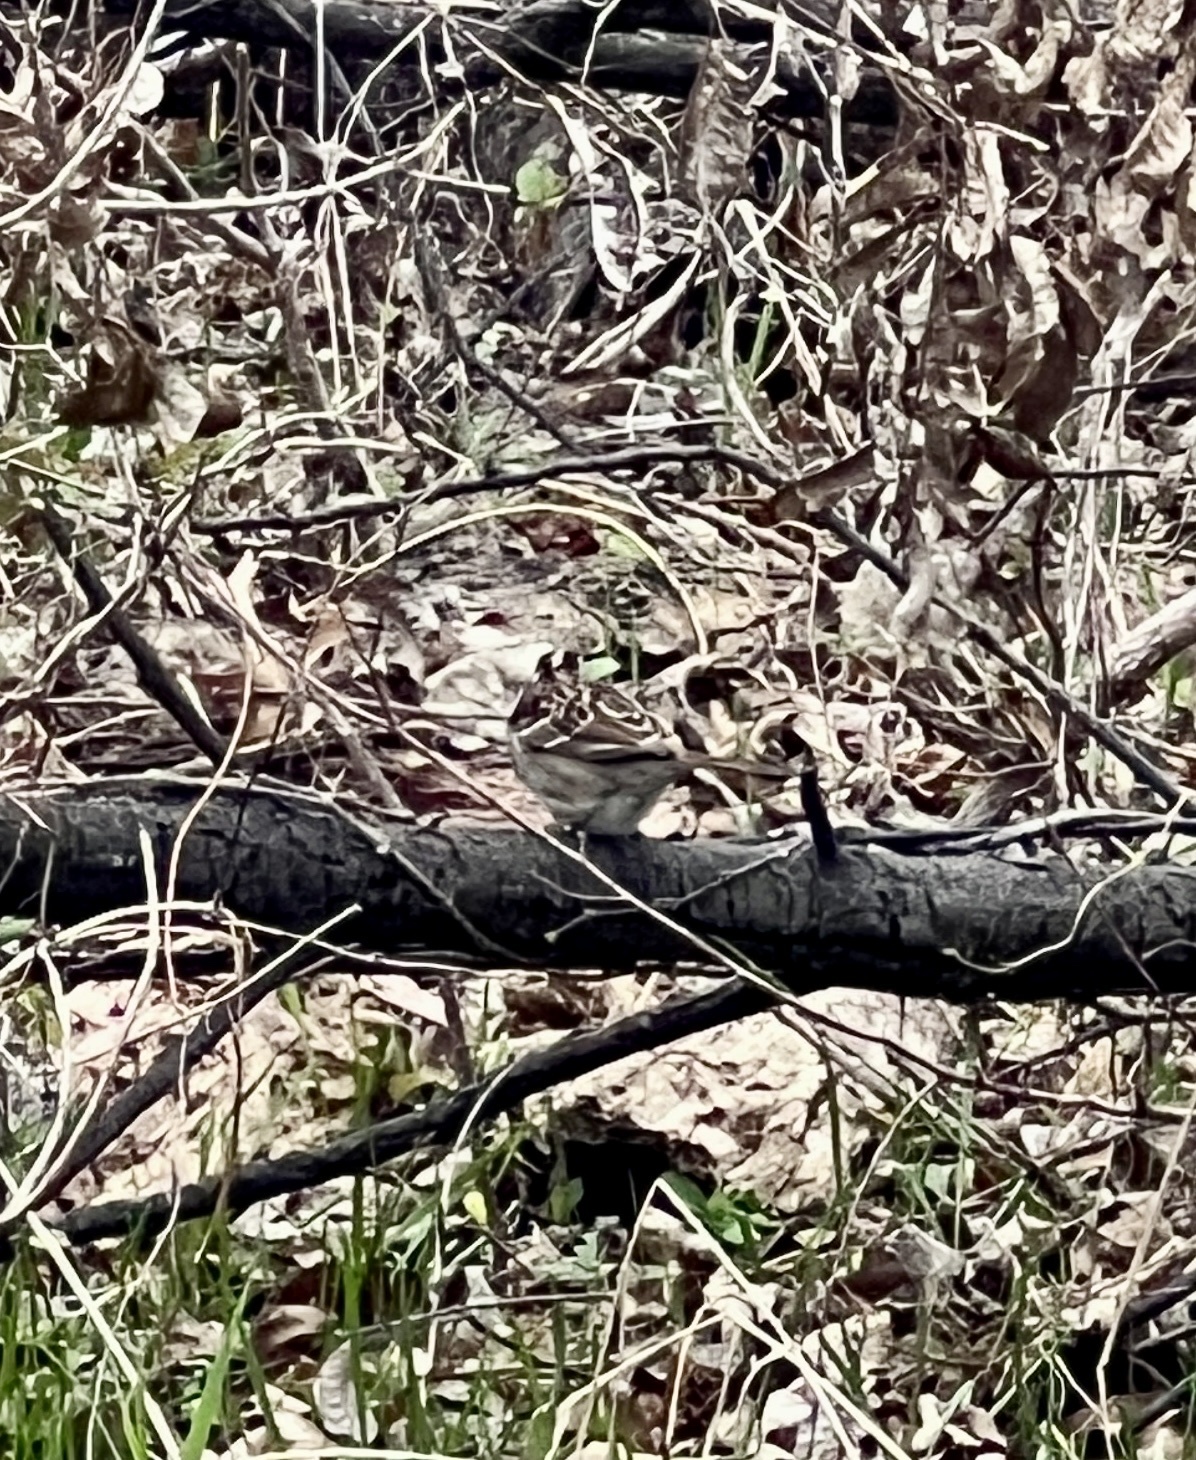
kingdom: Animalia
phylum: Chordata
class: Aves
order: Passeriformes
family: Passerellidae
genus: Zonotrichia
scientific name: Zonotrichia albicollis
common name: White-throated sparrow
